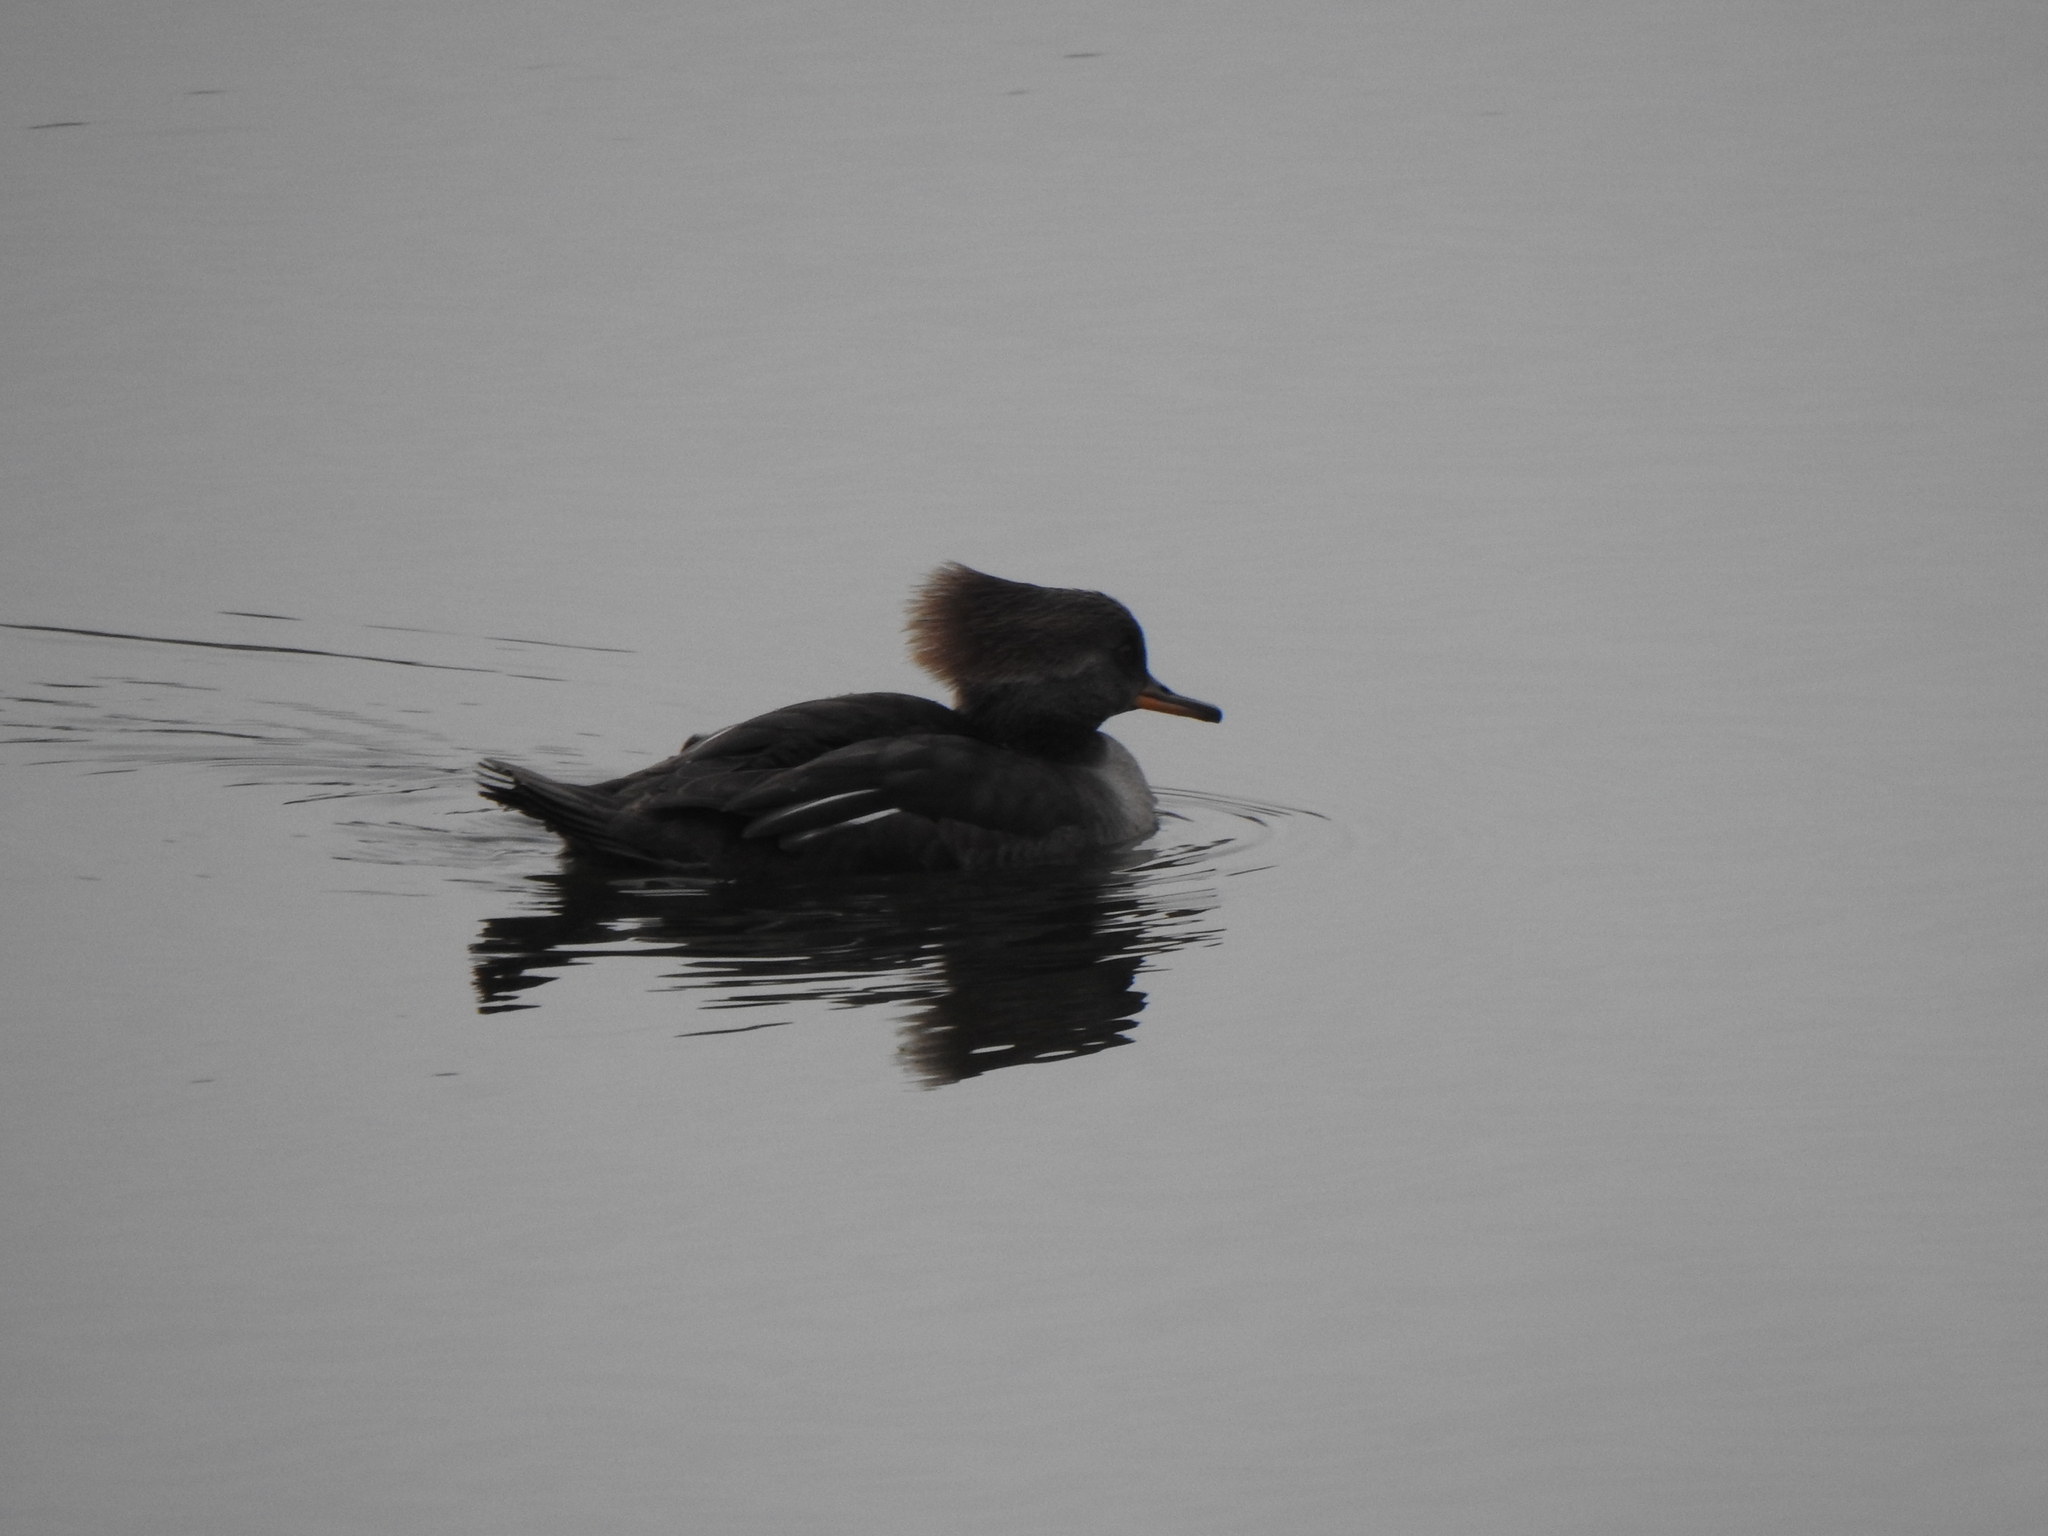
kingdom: Animalia
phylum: Chordata
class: Aves
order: Anseriformes
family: Anatidae
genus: Lophodytes
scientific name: Lophodytes cucullatus
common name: Hooded merganser
